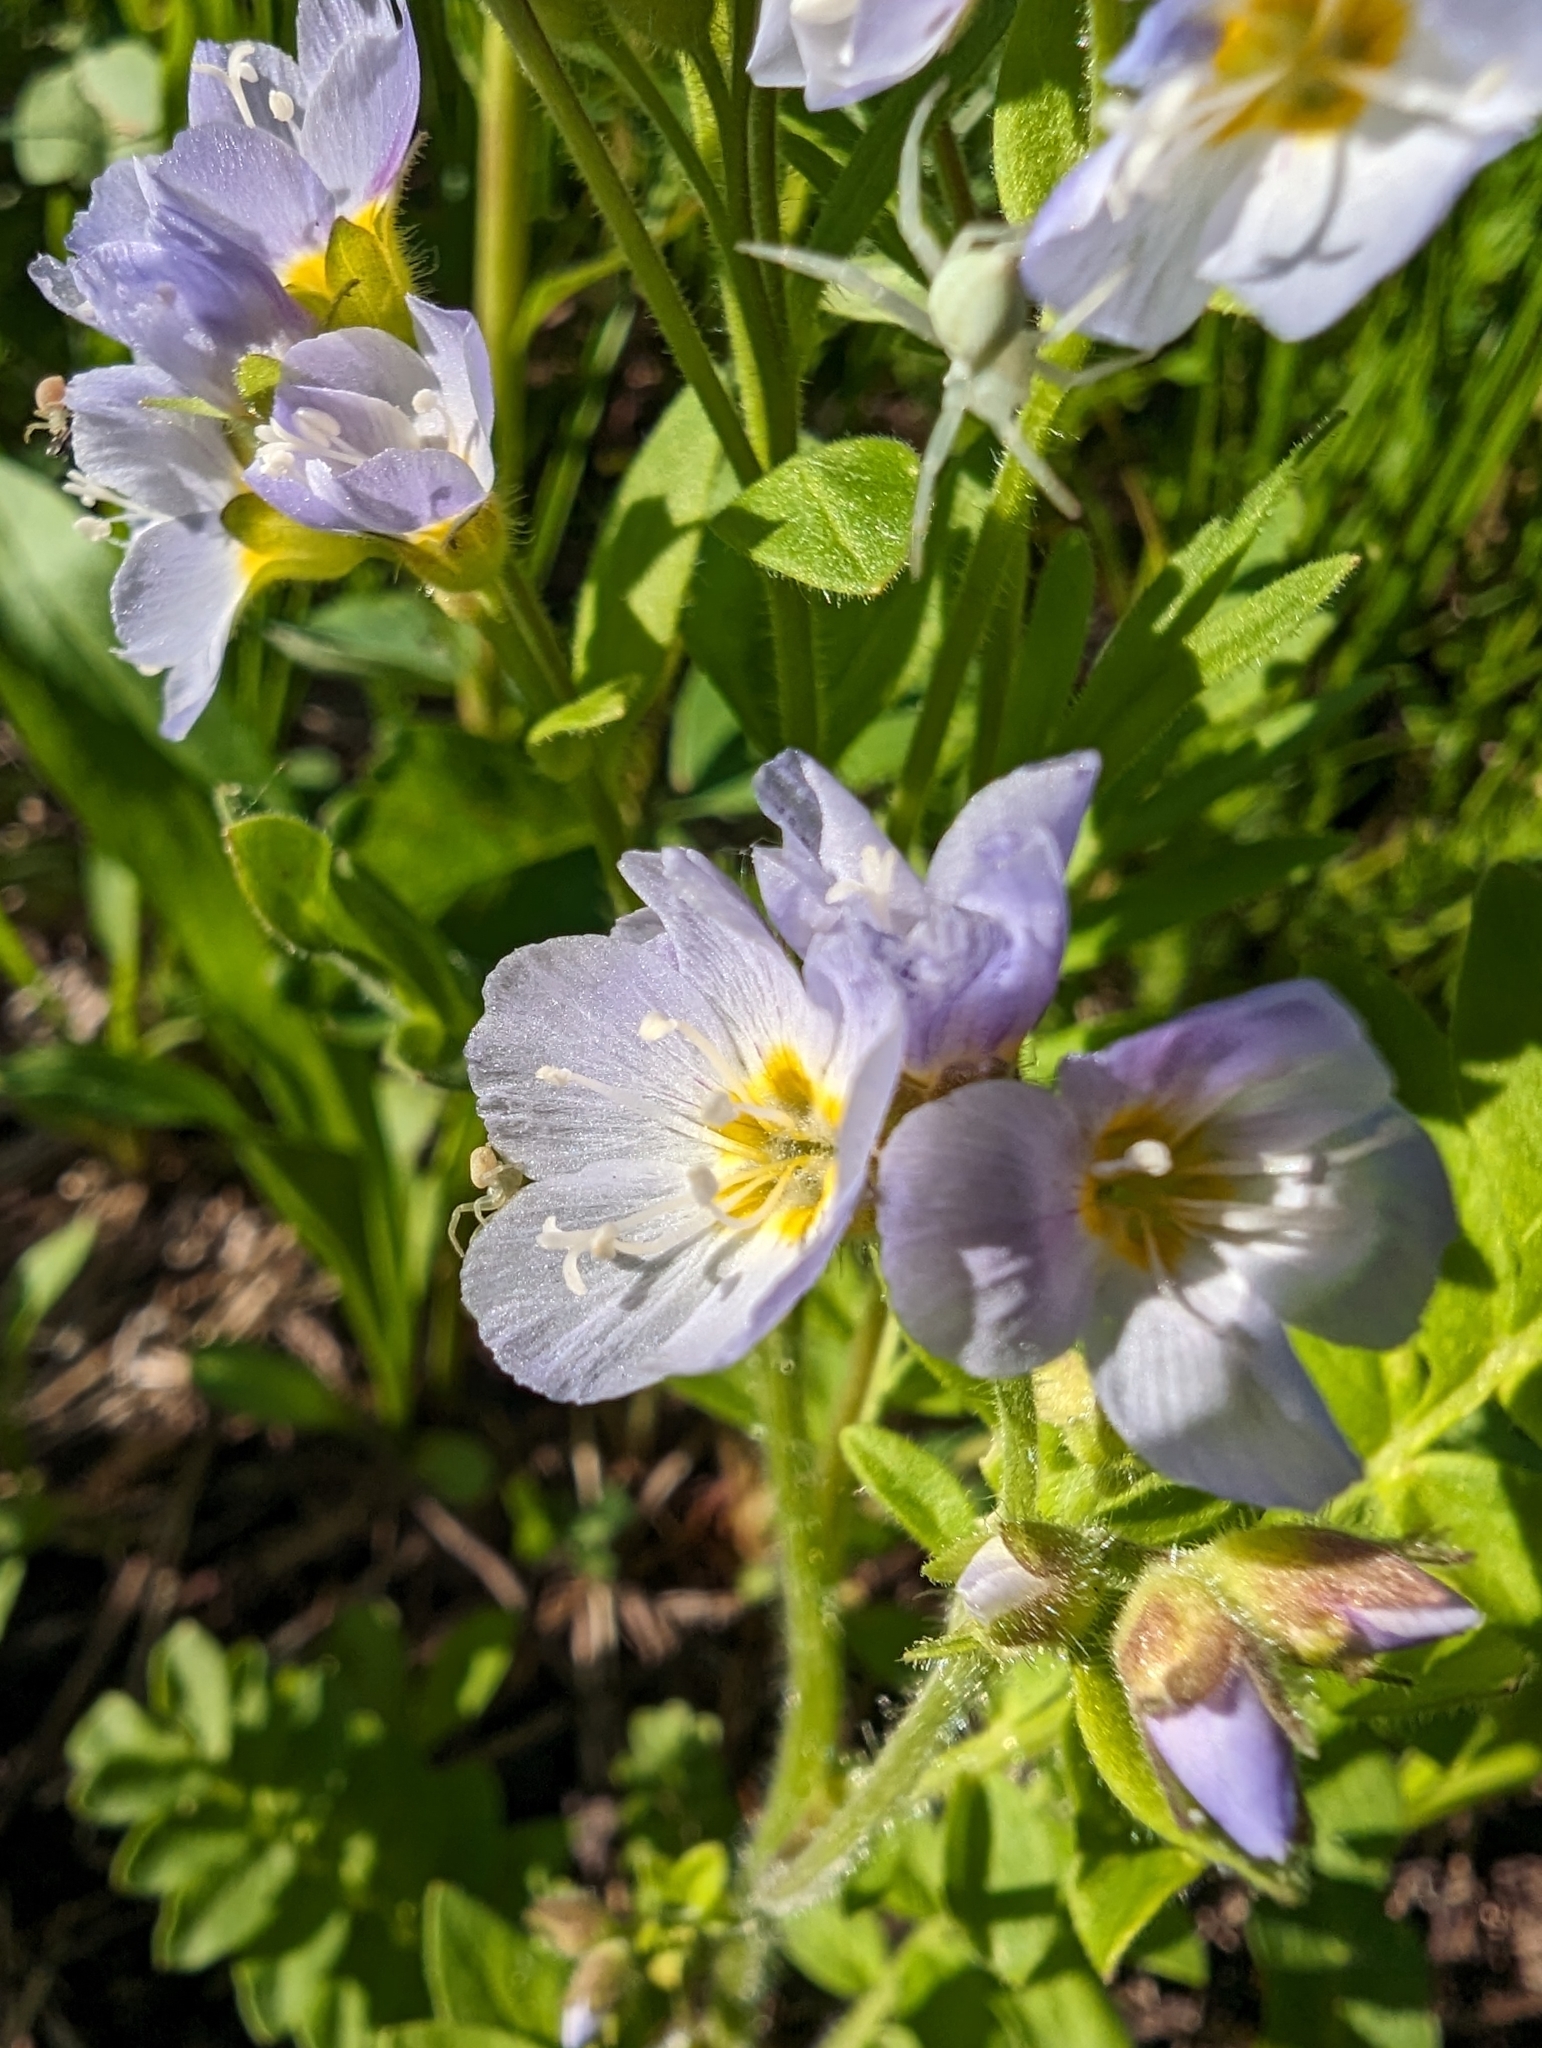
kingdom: Plantae
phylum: Tracheophyta
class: Magnoliopsida
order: Ericales
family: Polemoniaceae
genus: Polemonium
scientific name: Polemonium californicum
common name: California jacob's ladder
